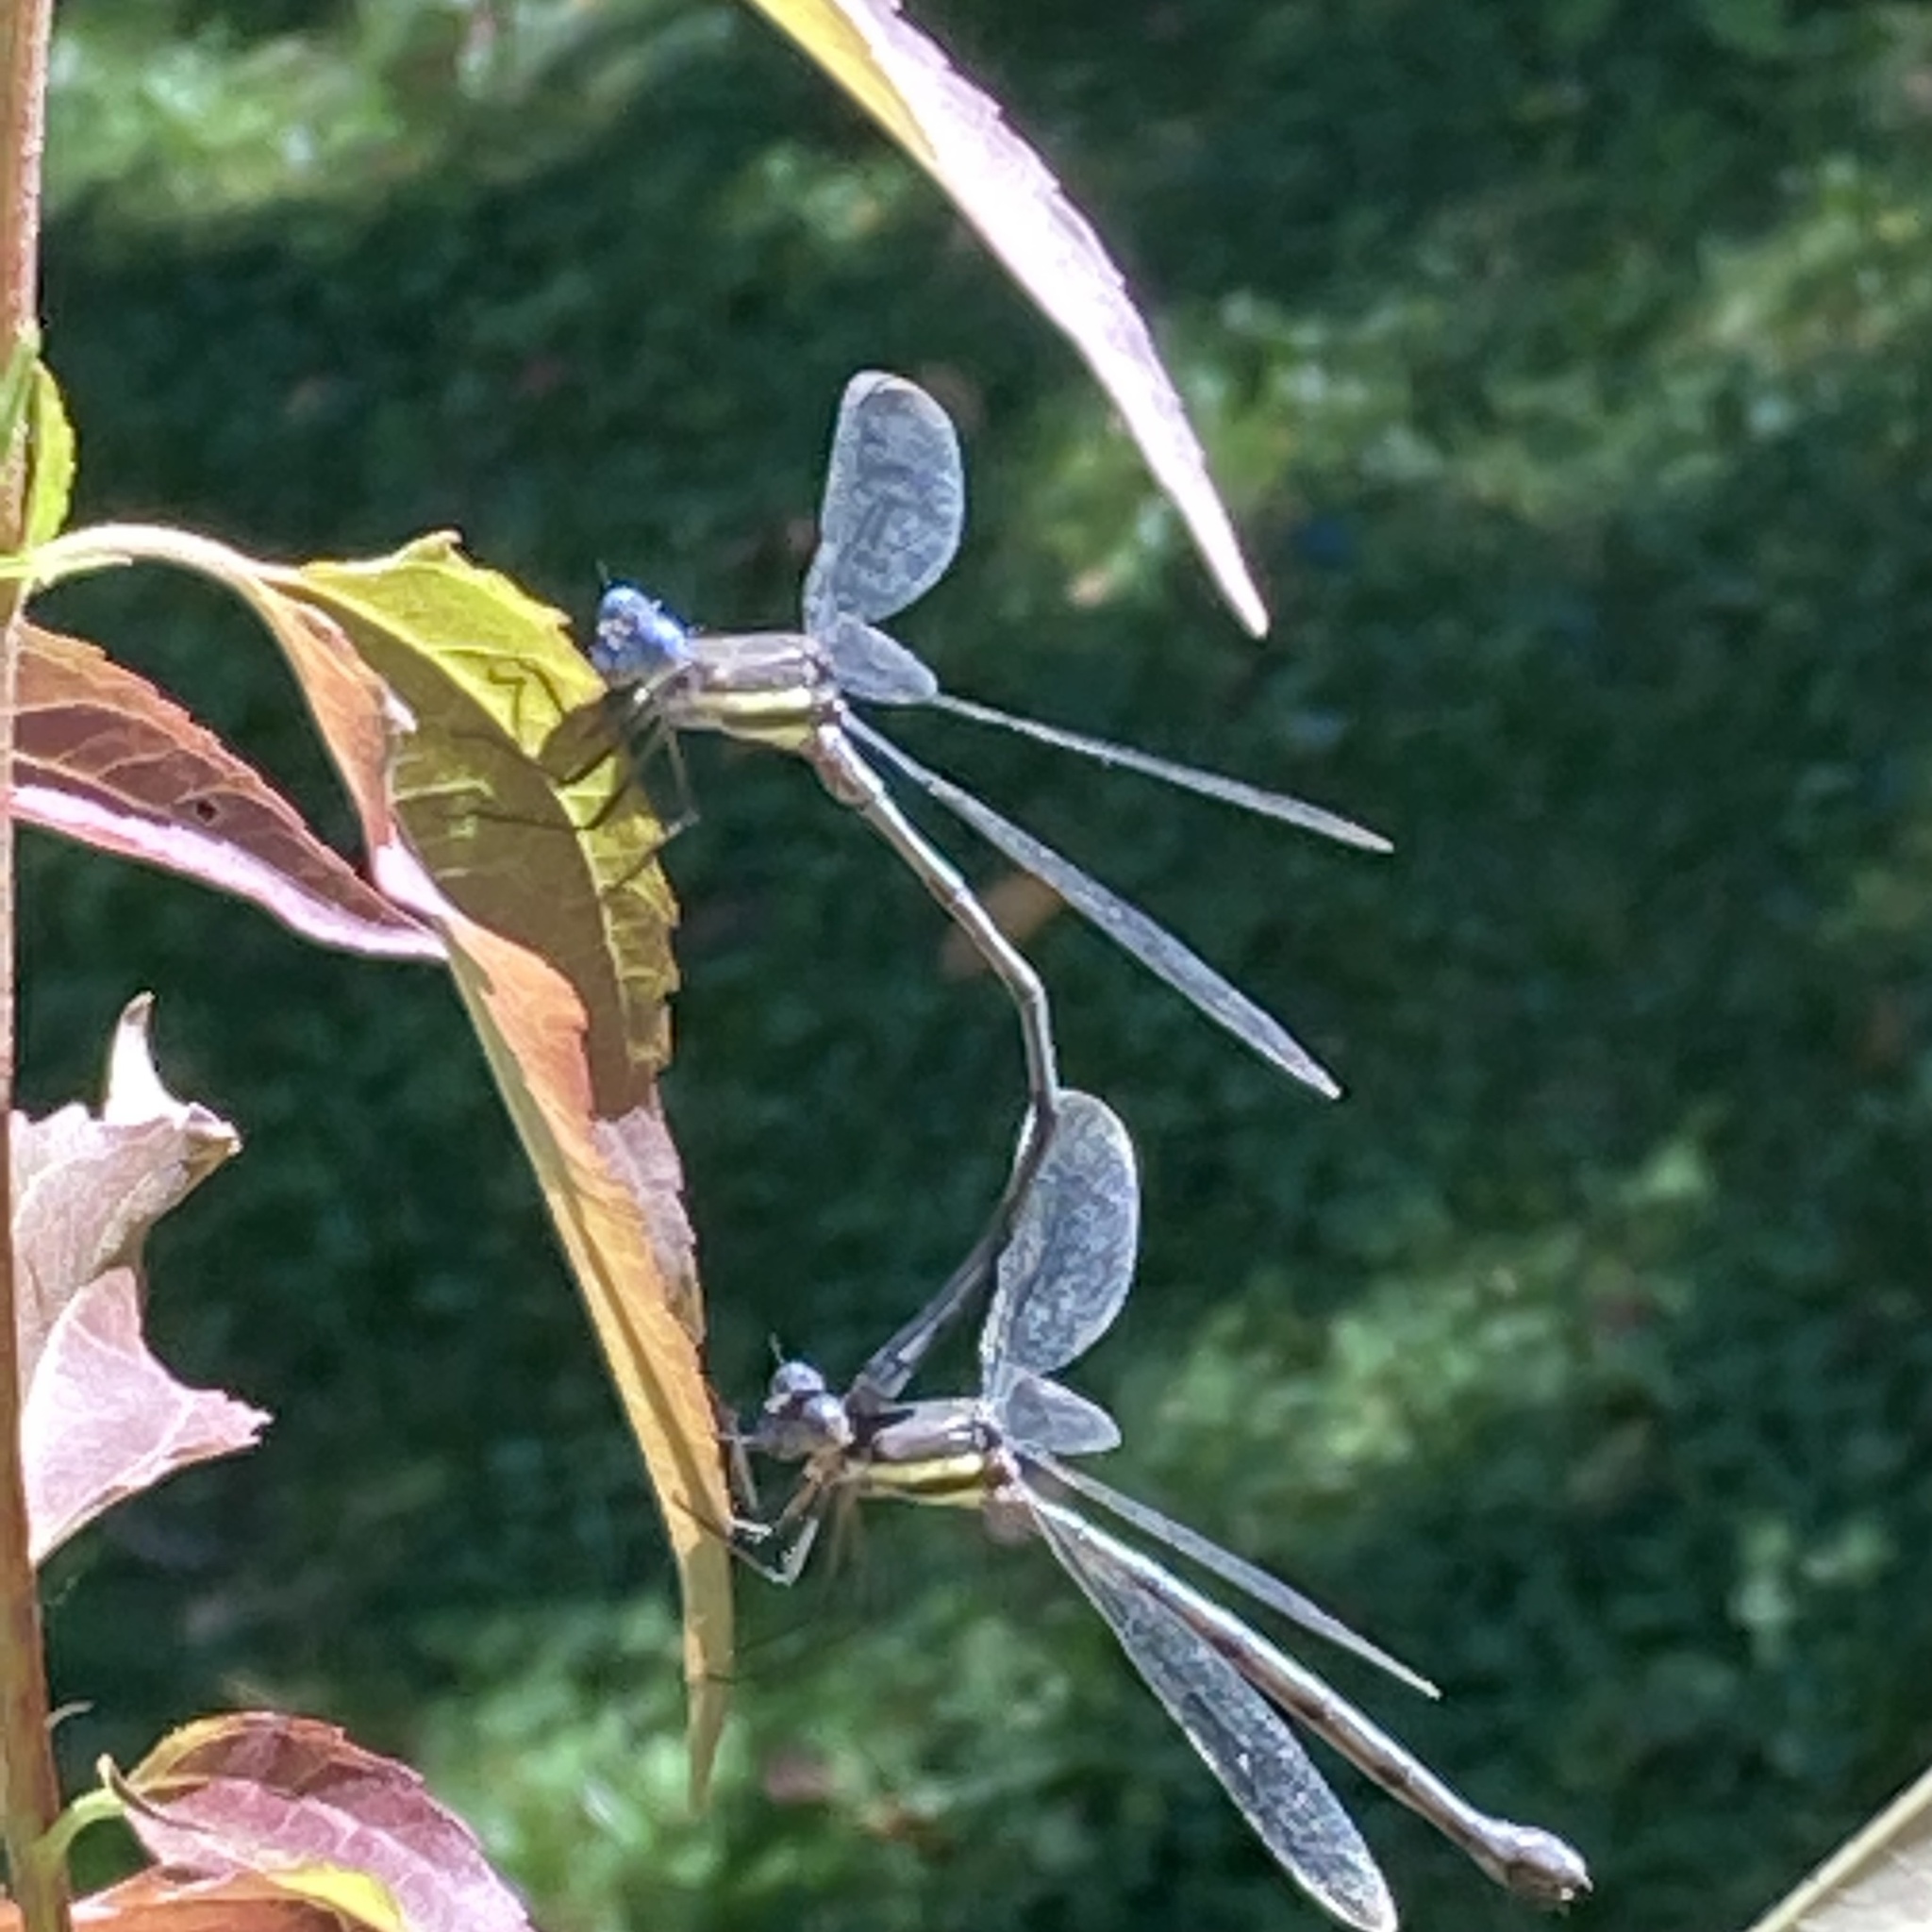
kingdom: Animalia
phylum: Arthropoda
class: Insecta
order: Odonata
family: Lestidae
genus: Archilestes
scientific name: Archilestes grandis
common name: Great spreadwing
